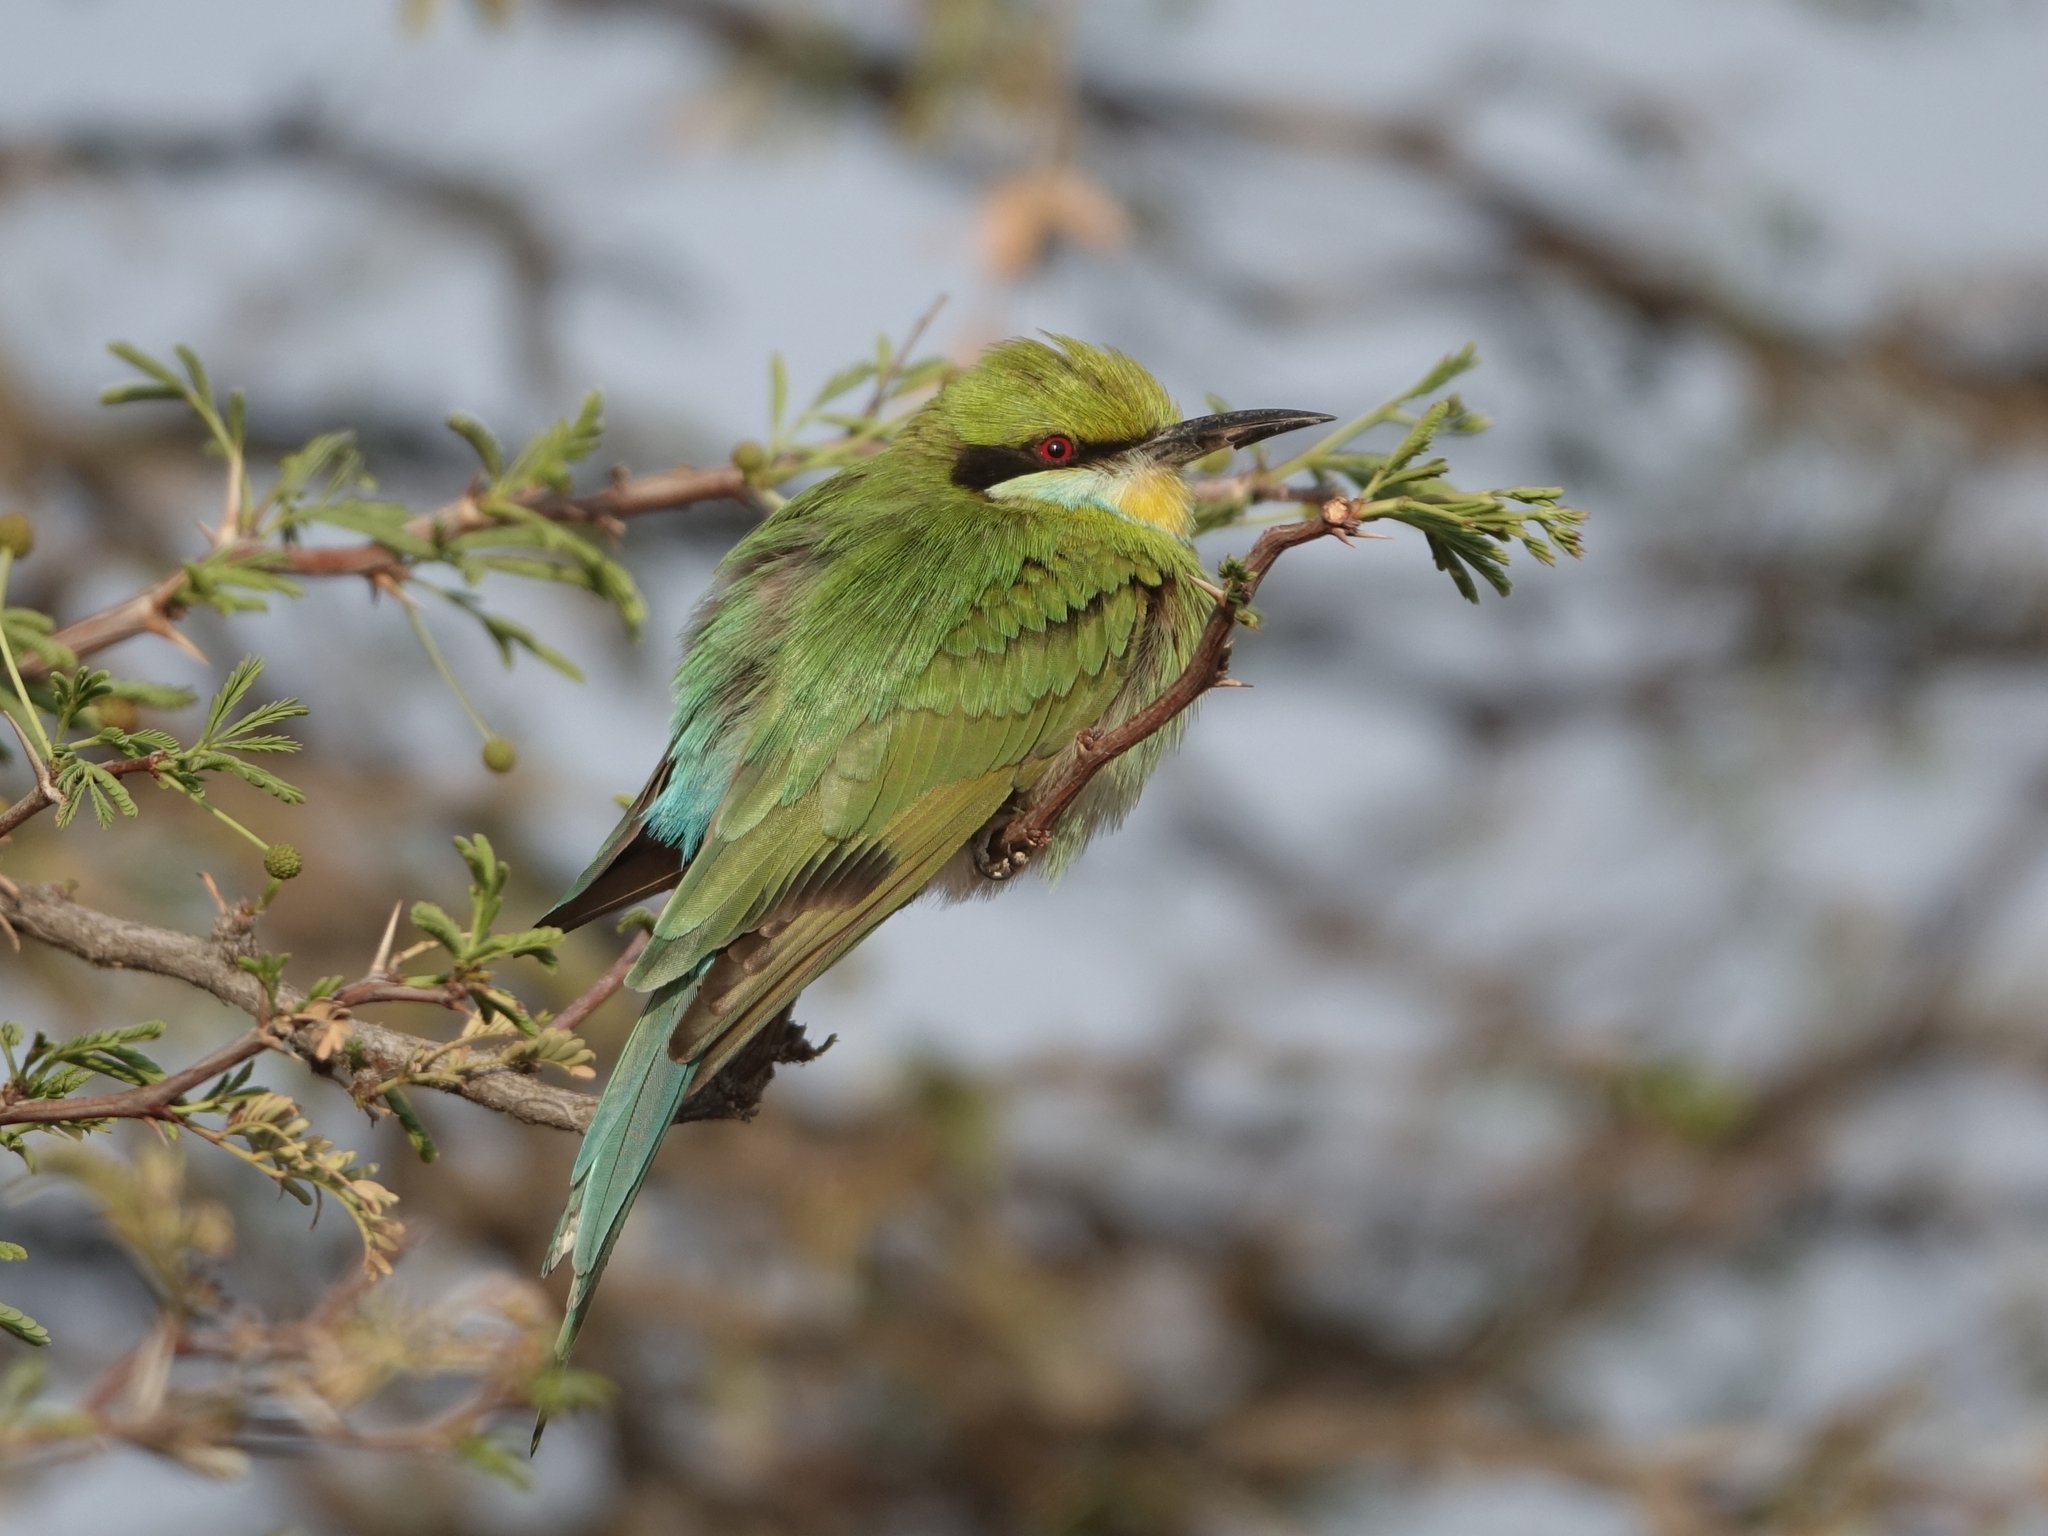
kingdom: Animalia
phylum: Chordata
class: Aves
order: Coraciiformes
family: Meropidae
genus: Merops
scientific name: Merops hirundineus
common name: Swallow-tailed bee-eater
